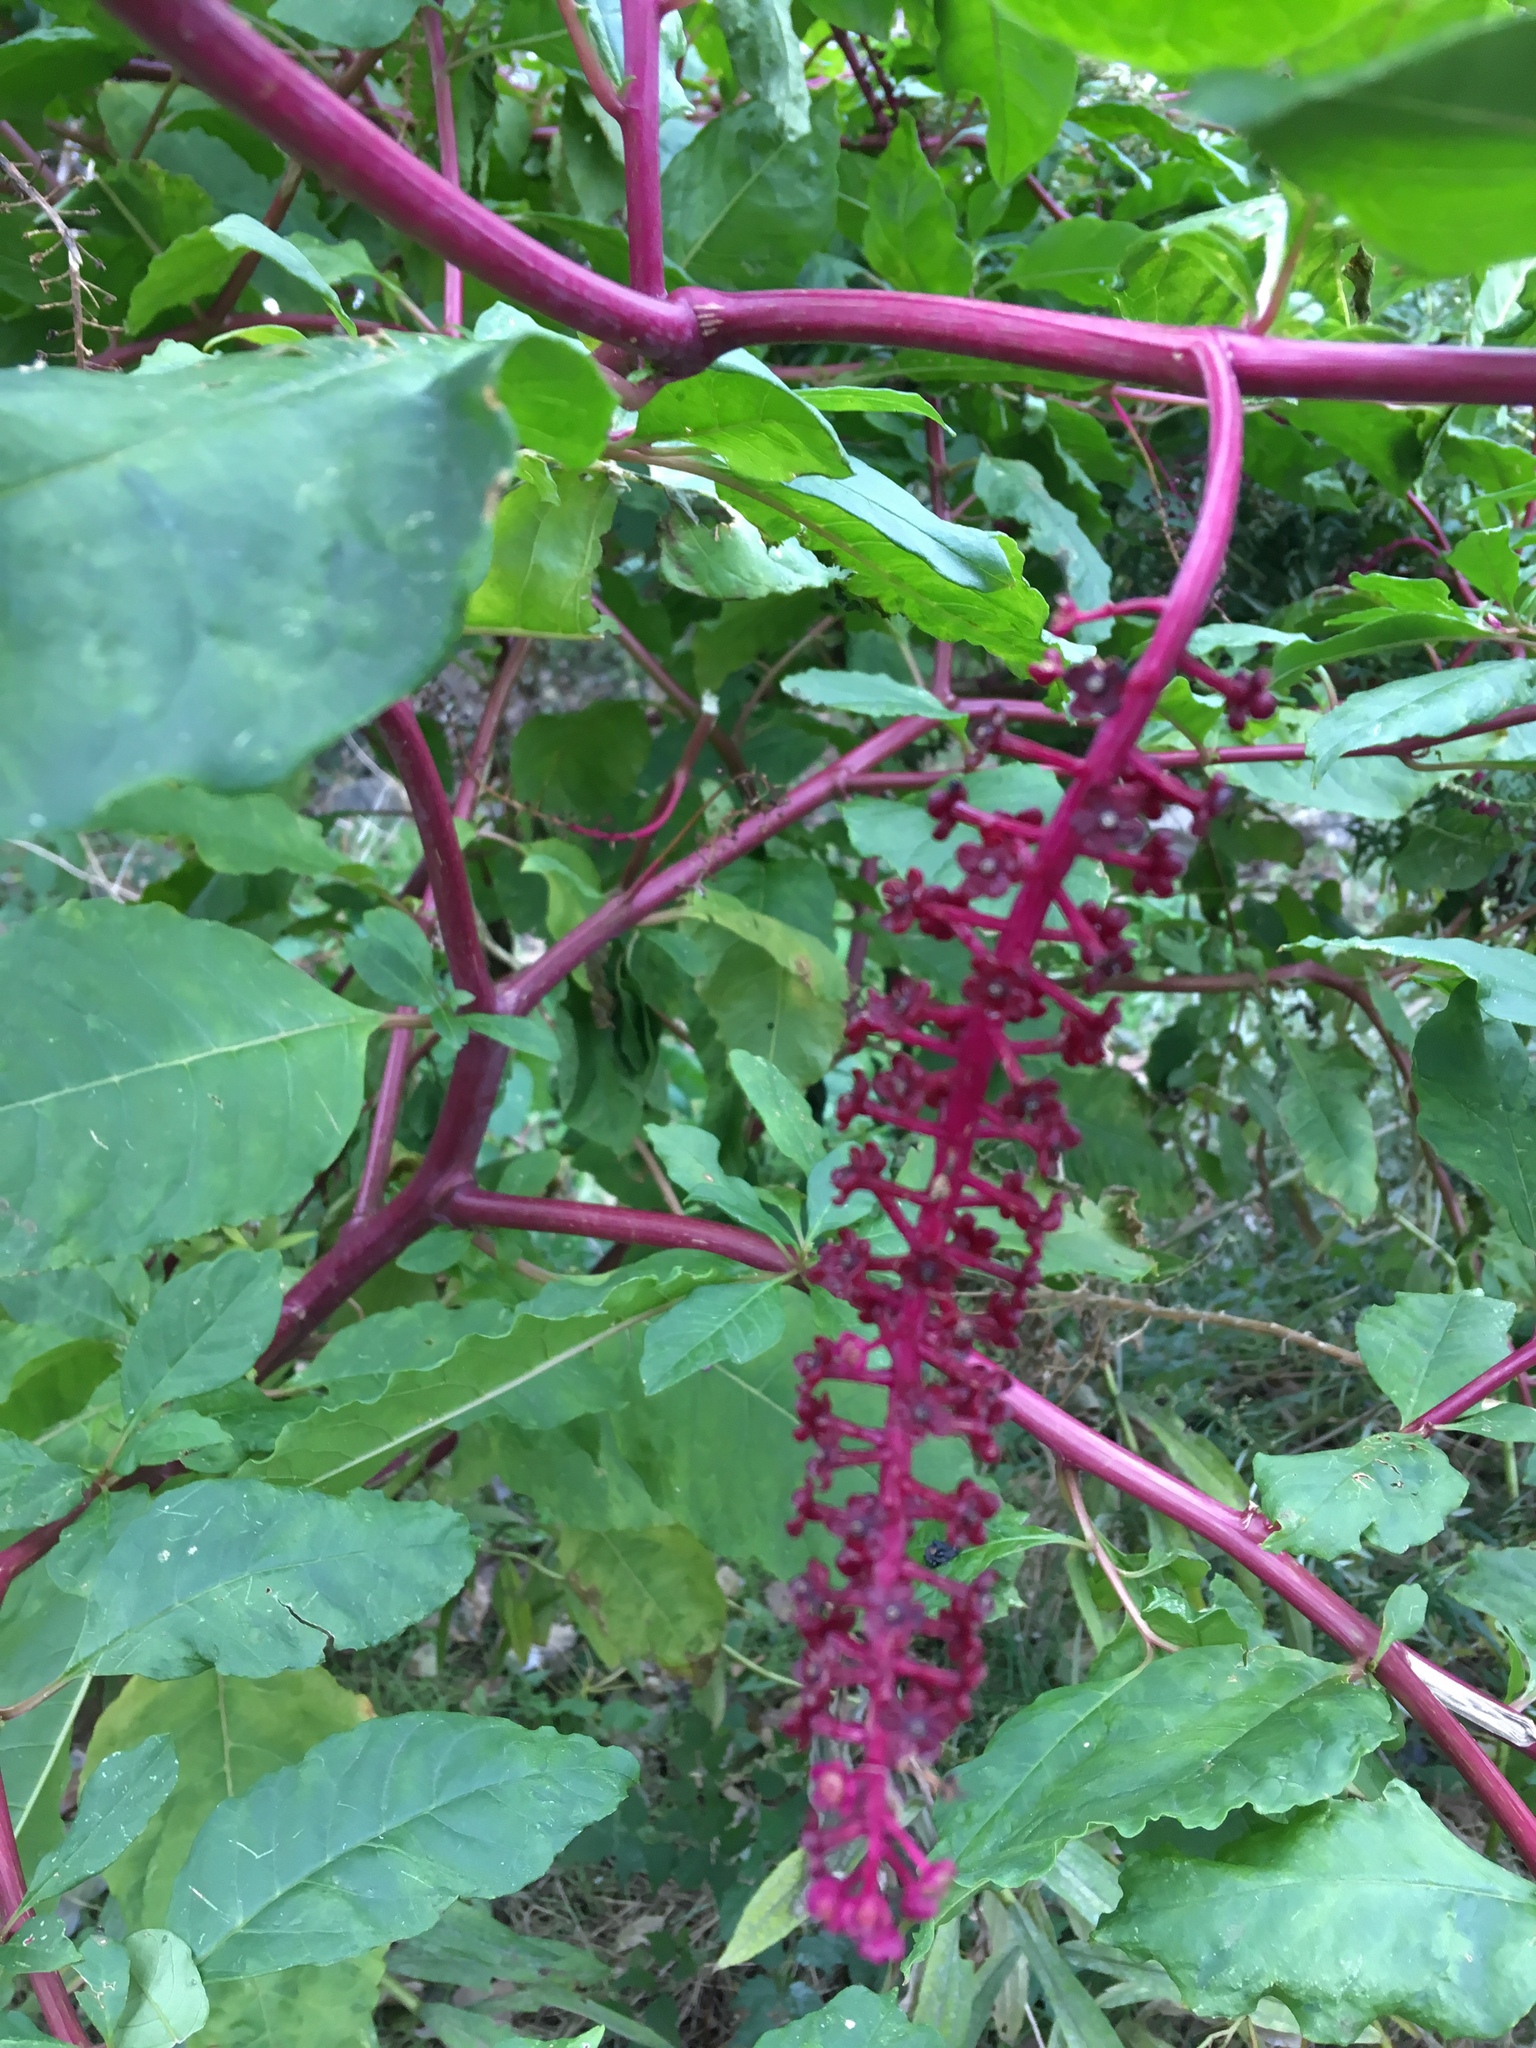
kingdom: Plantae
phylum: Tracheophyta
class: Magnoliopsida
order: Caryophyllales
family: Phytolaccaceae
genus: Phytolacca
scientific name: Phytolacca americana
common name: American pokeweed
